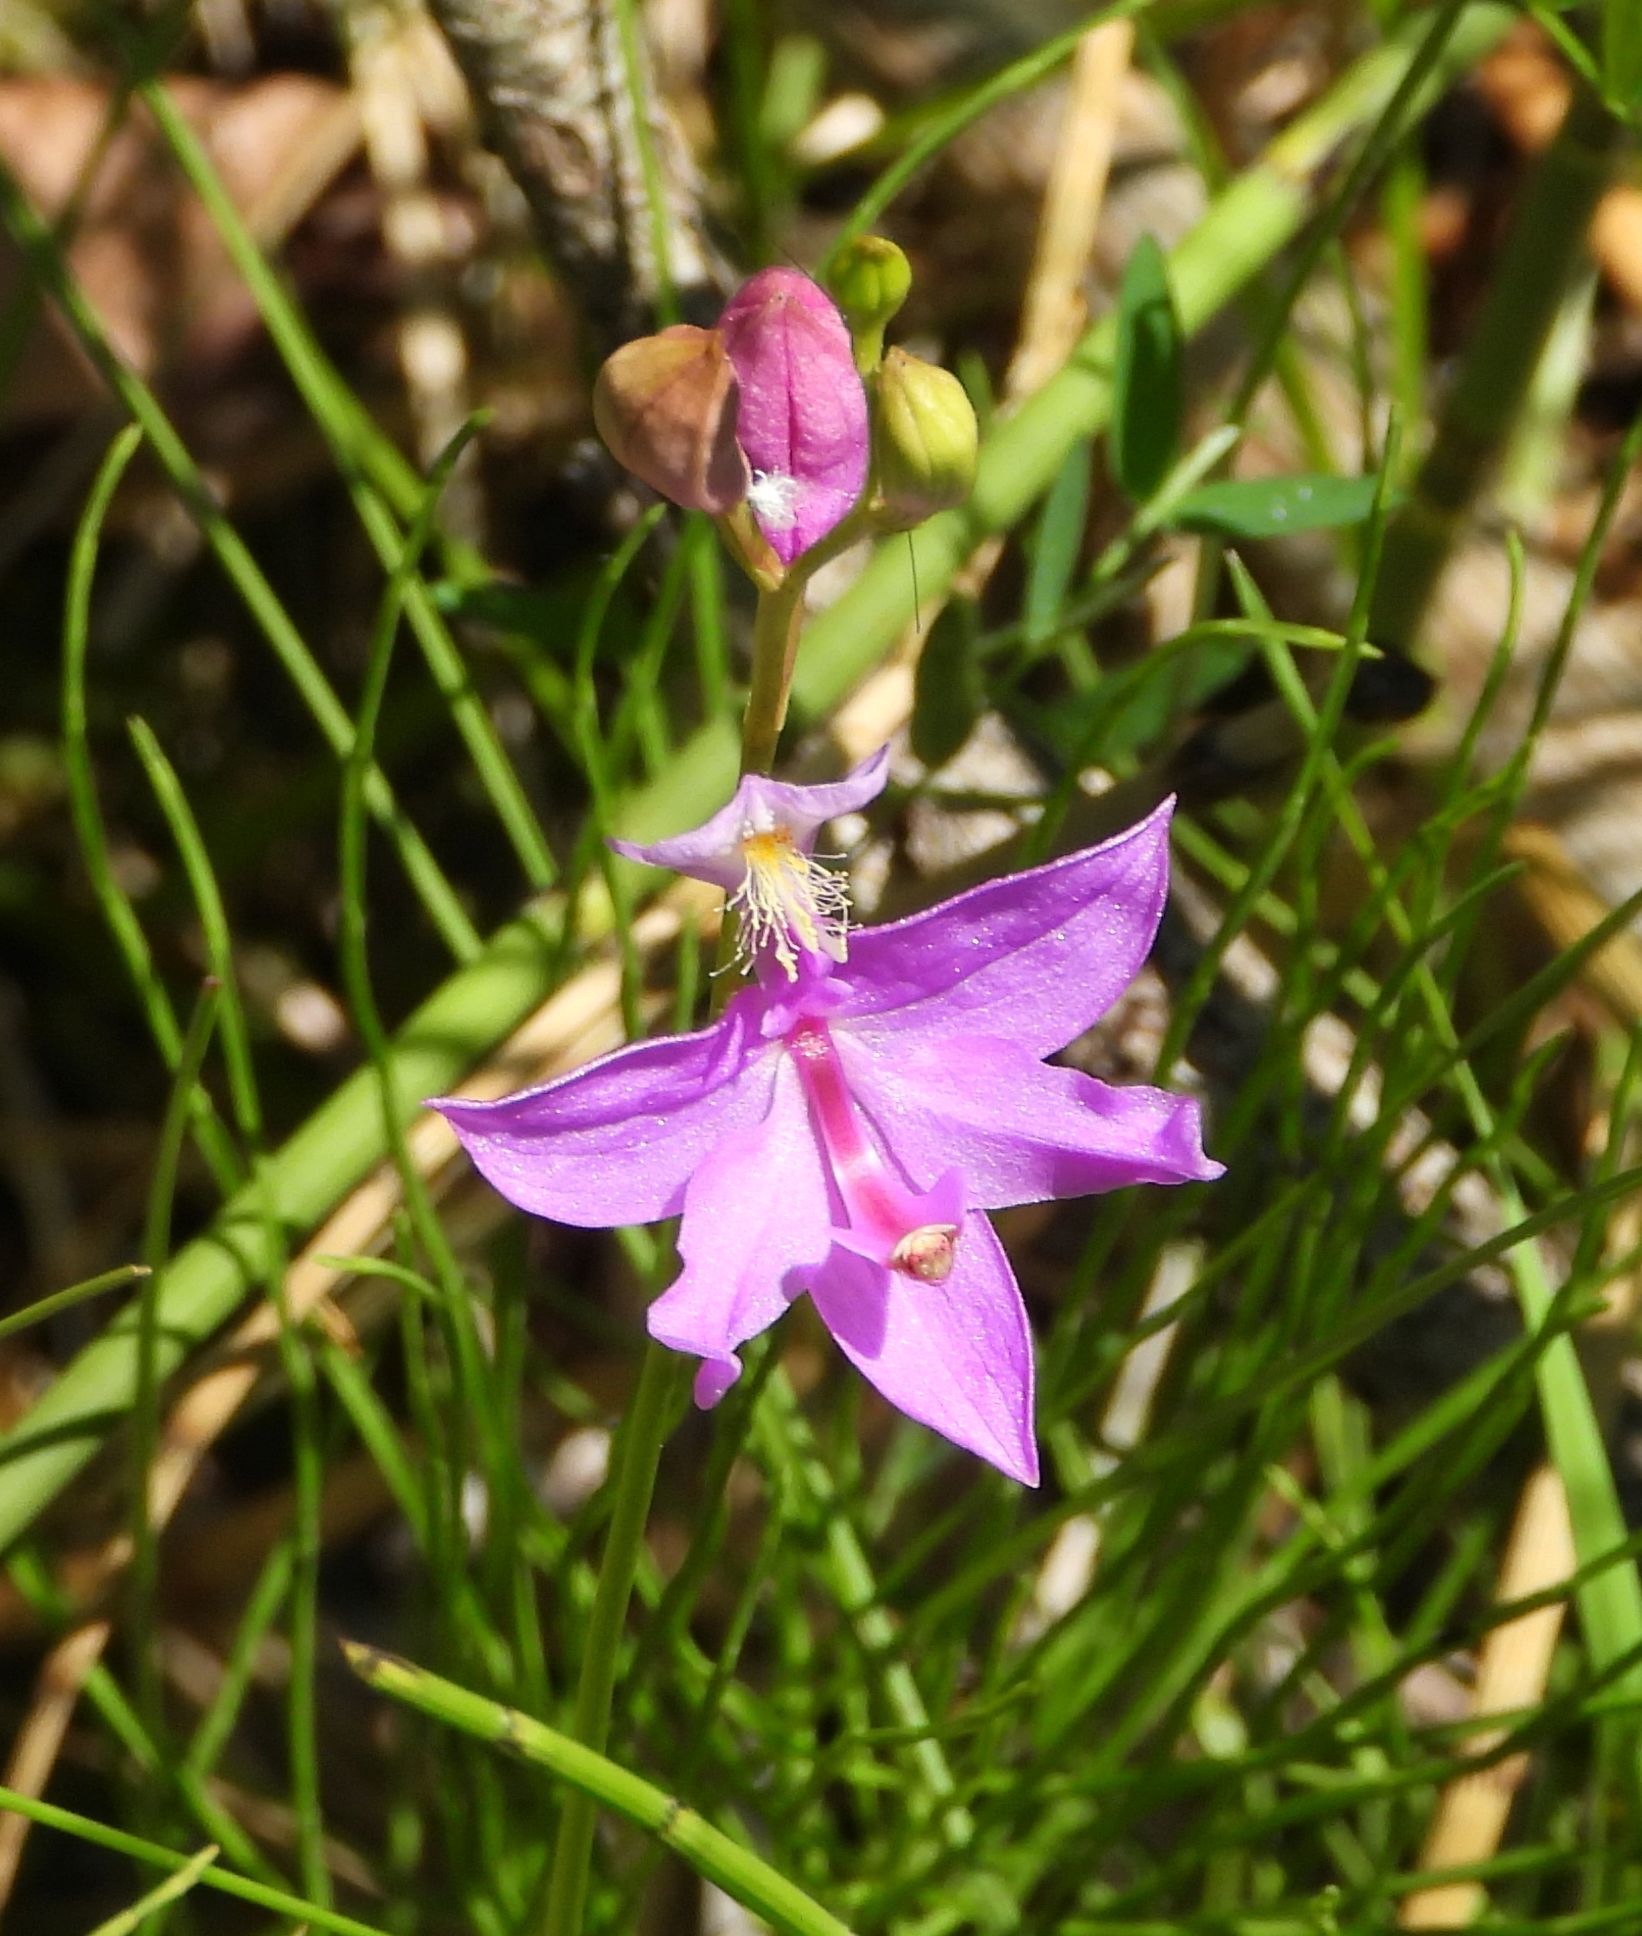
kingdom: Plantae
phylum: Tracheophyta
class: Liliopsida
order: Asparagales
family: Orchidaceae
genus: Calopogon
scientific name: Calopogon tuberosus
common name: Grass-pink
